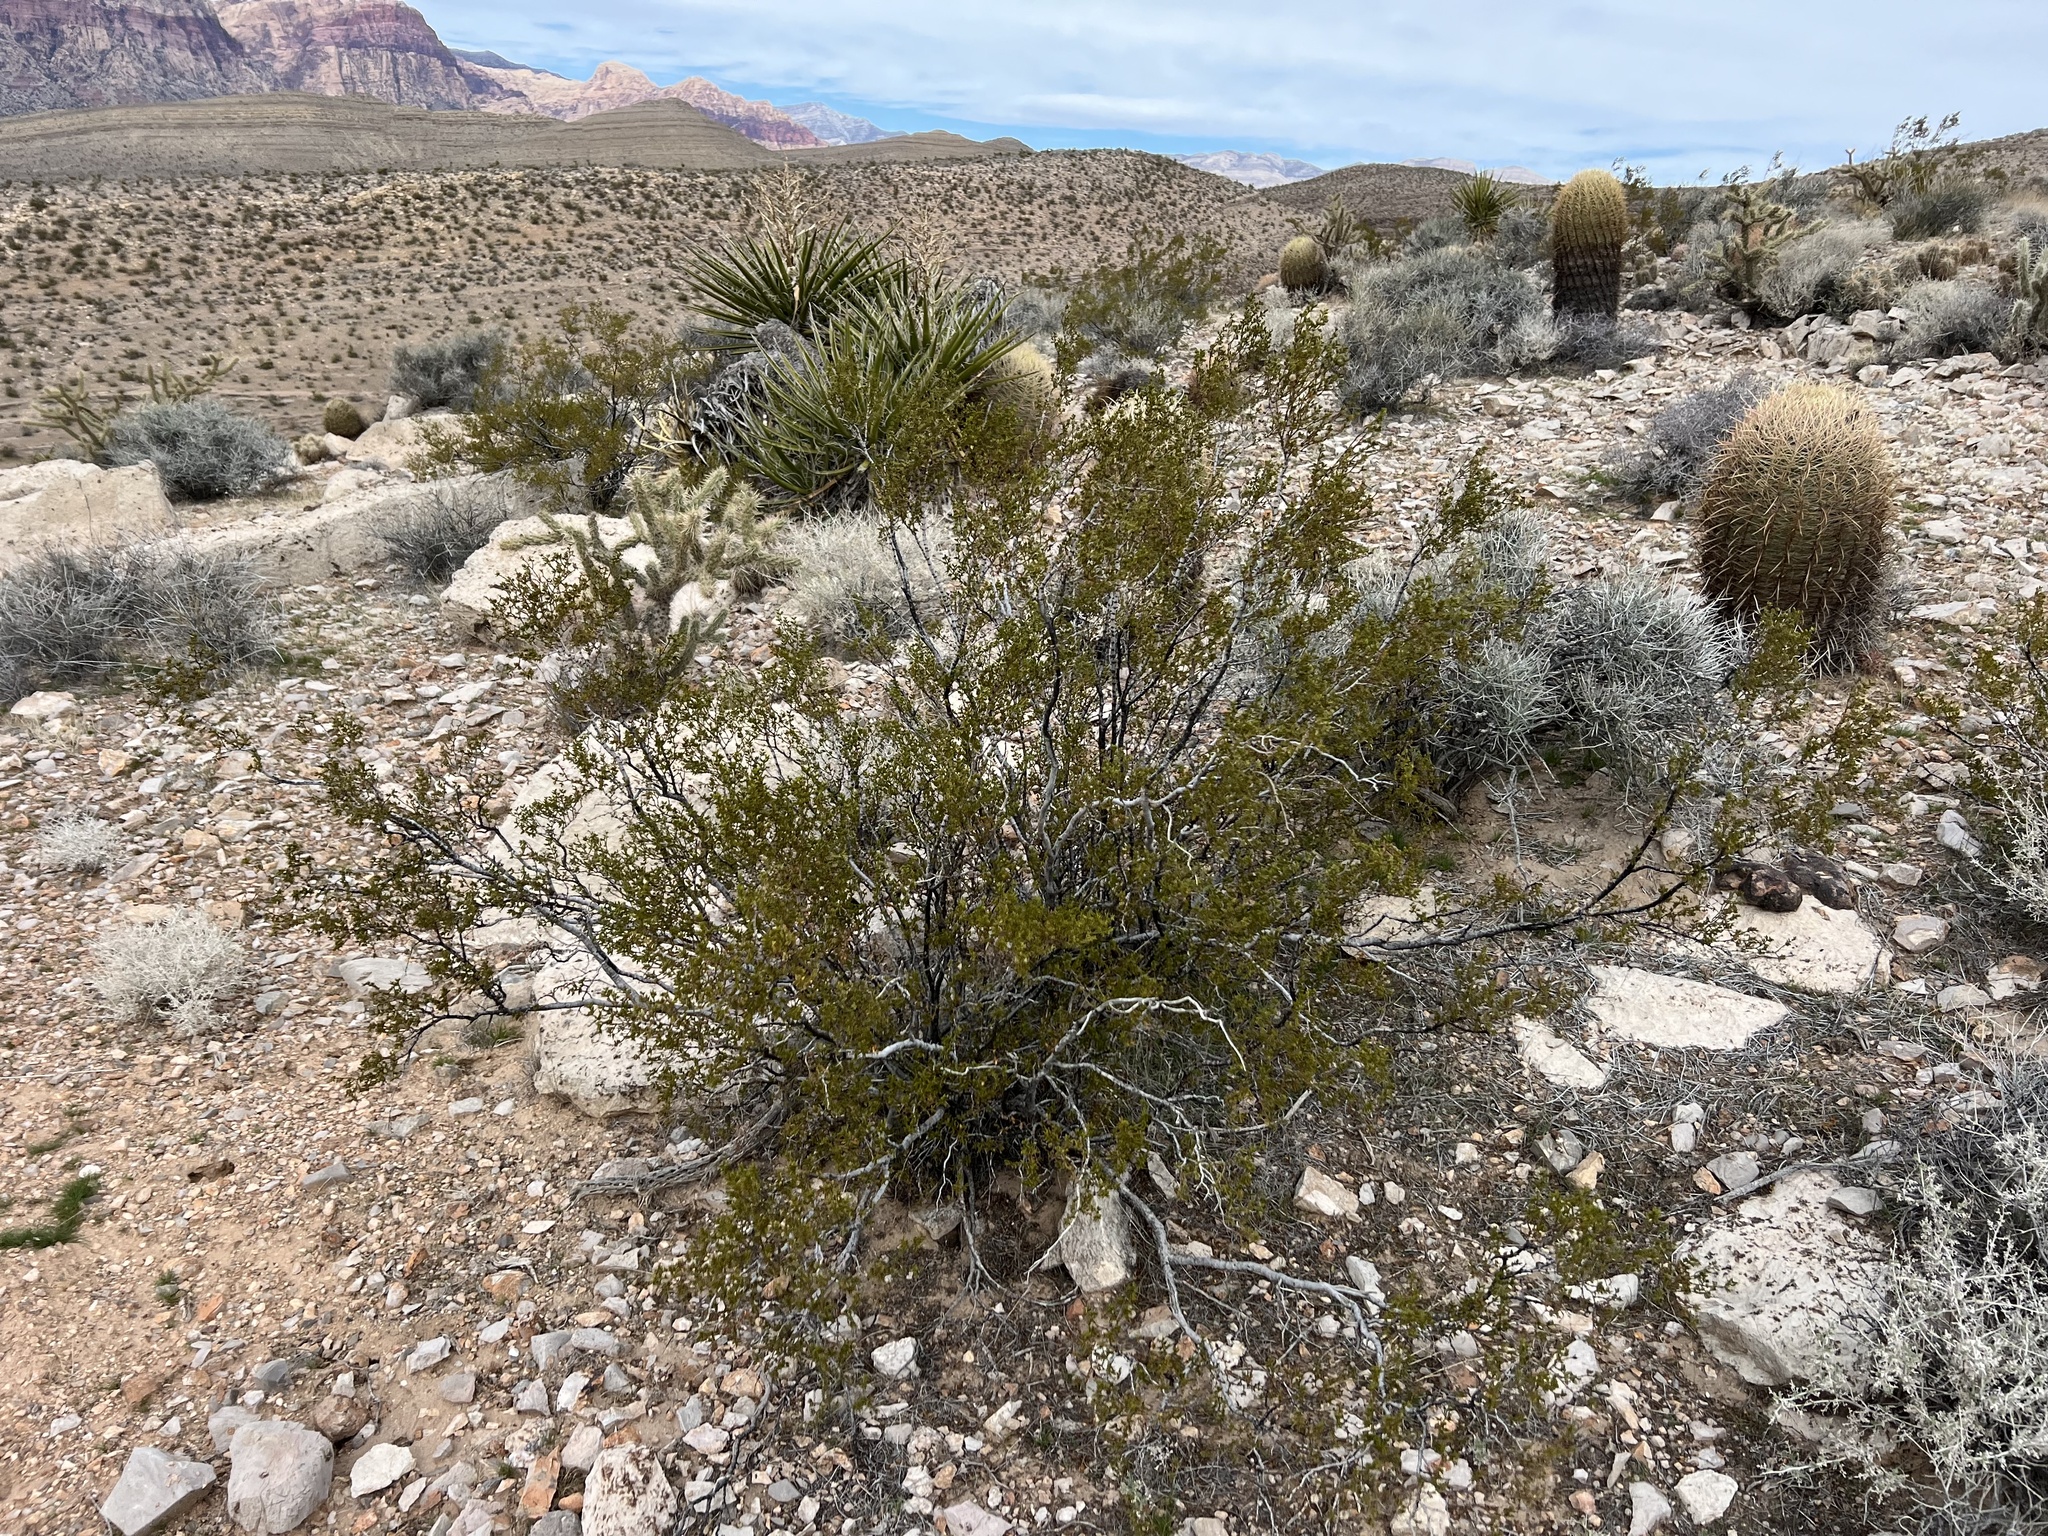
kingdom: Plantae
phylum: Tracheophyta
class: Magnoliopsida
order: Zygophyllales
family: Zygophyllaceae
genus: Larrea
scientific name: Larrea tridentata
